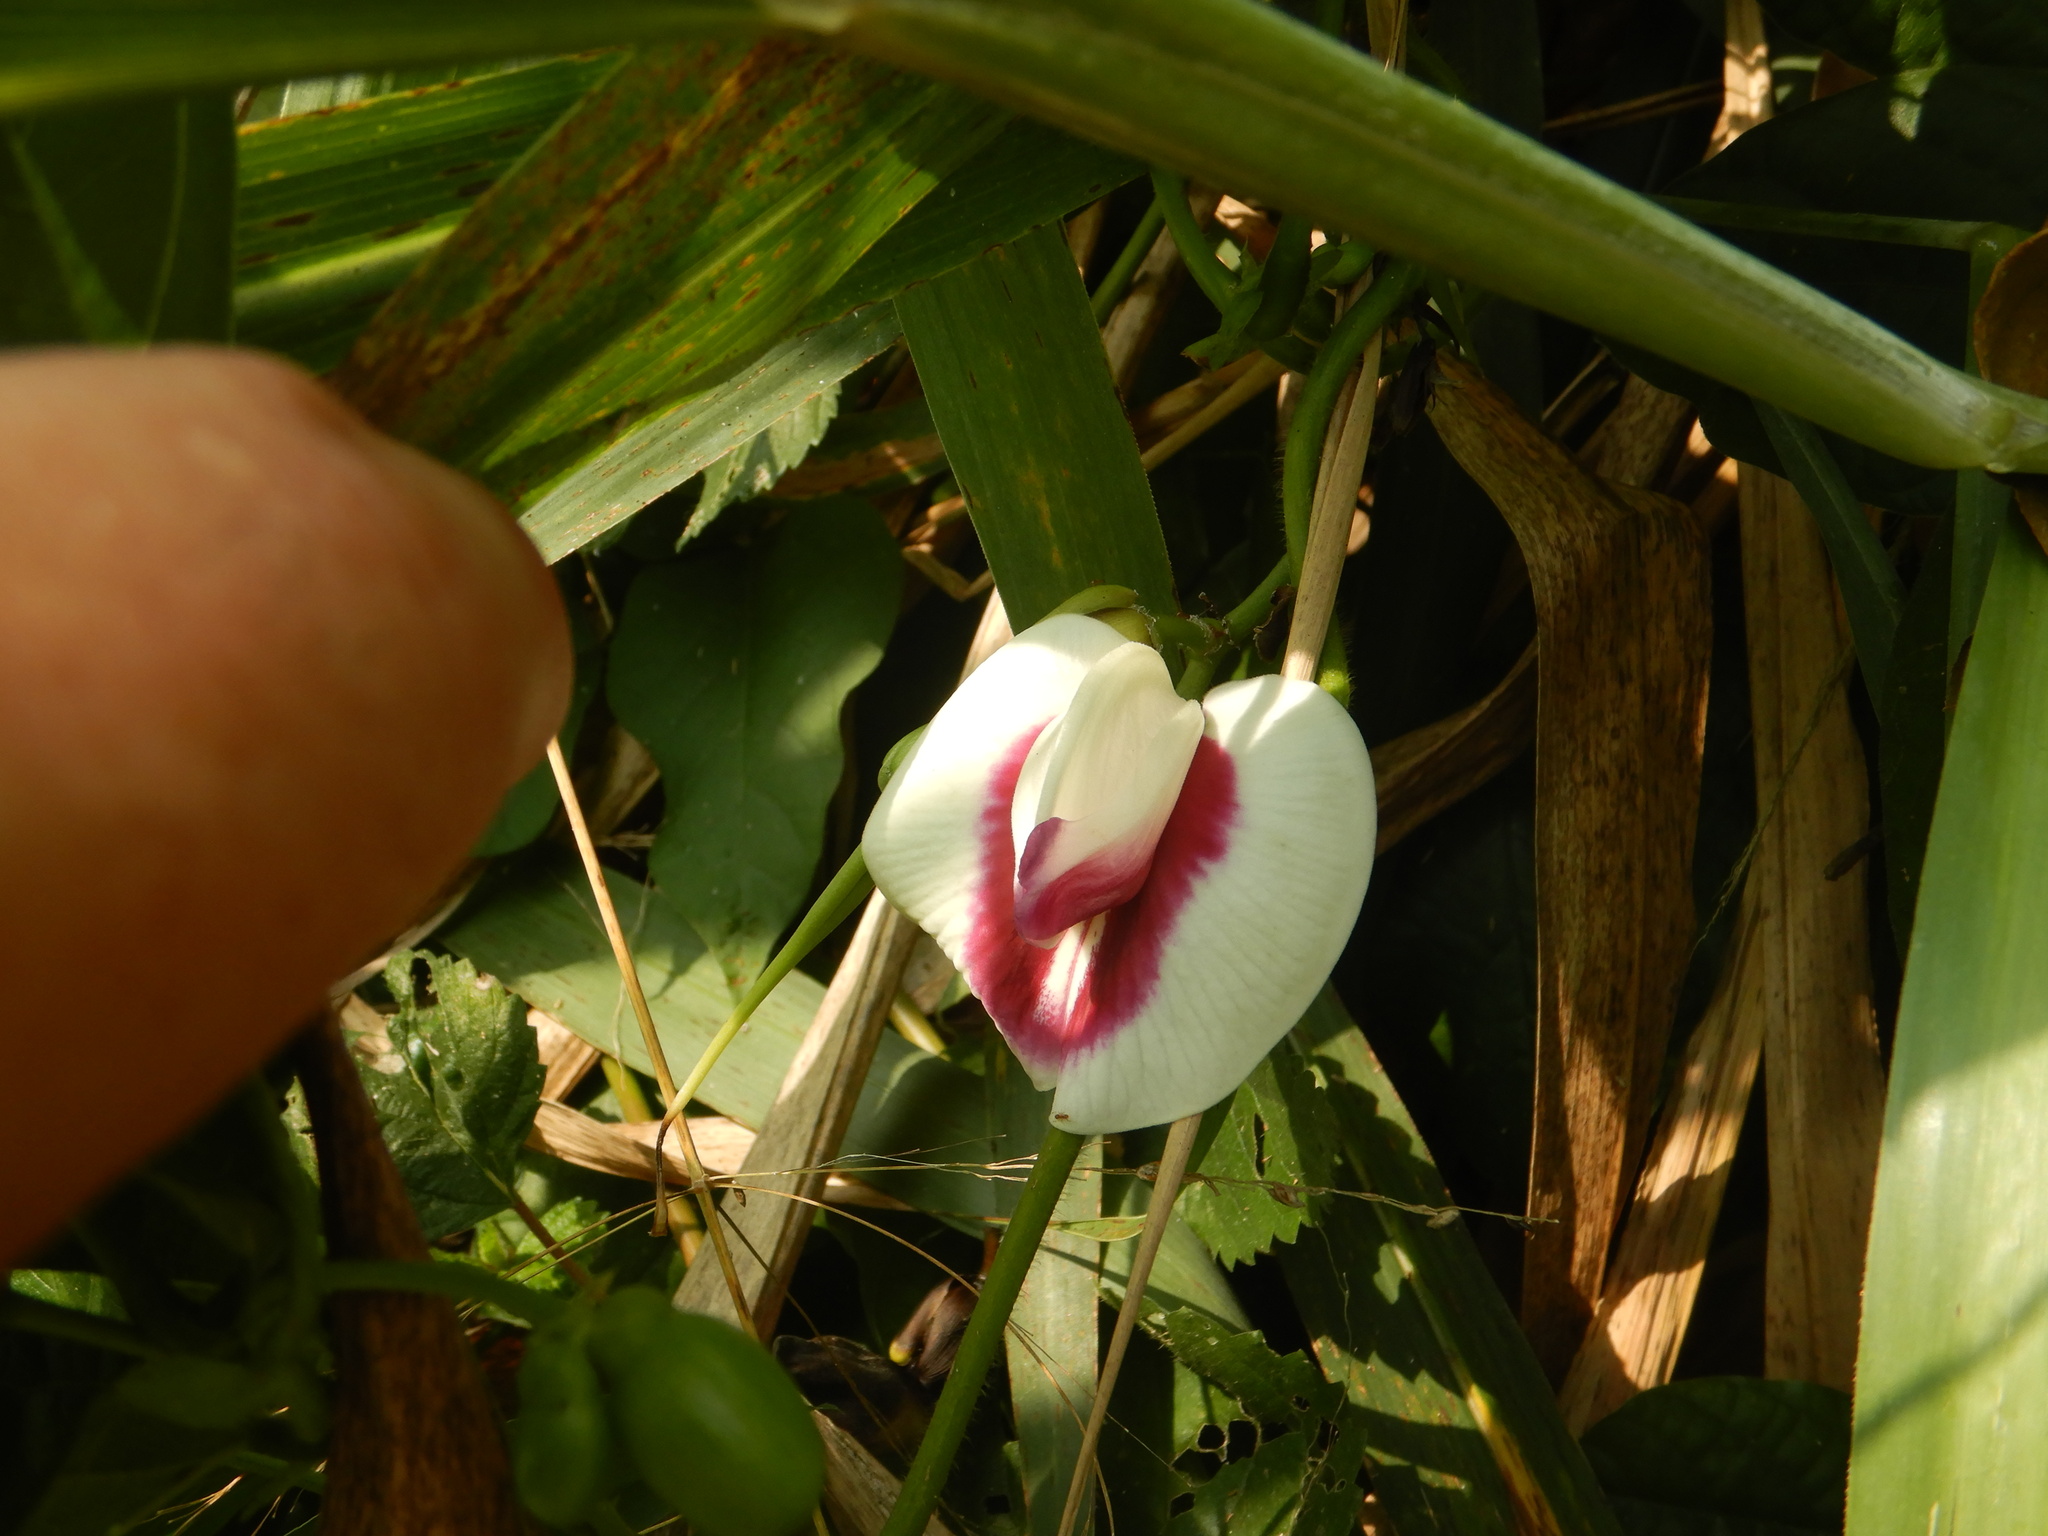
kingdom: Plantae
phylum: Tracheophyta
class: Magnoliopsida
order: Fabales
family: Fabaceae
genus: Centrosema
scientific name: Centrosema plumieri
